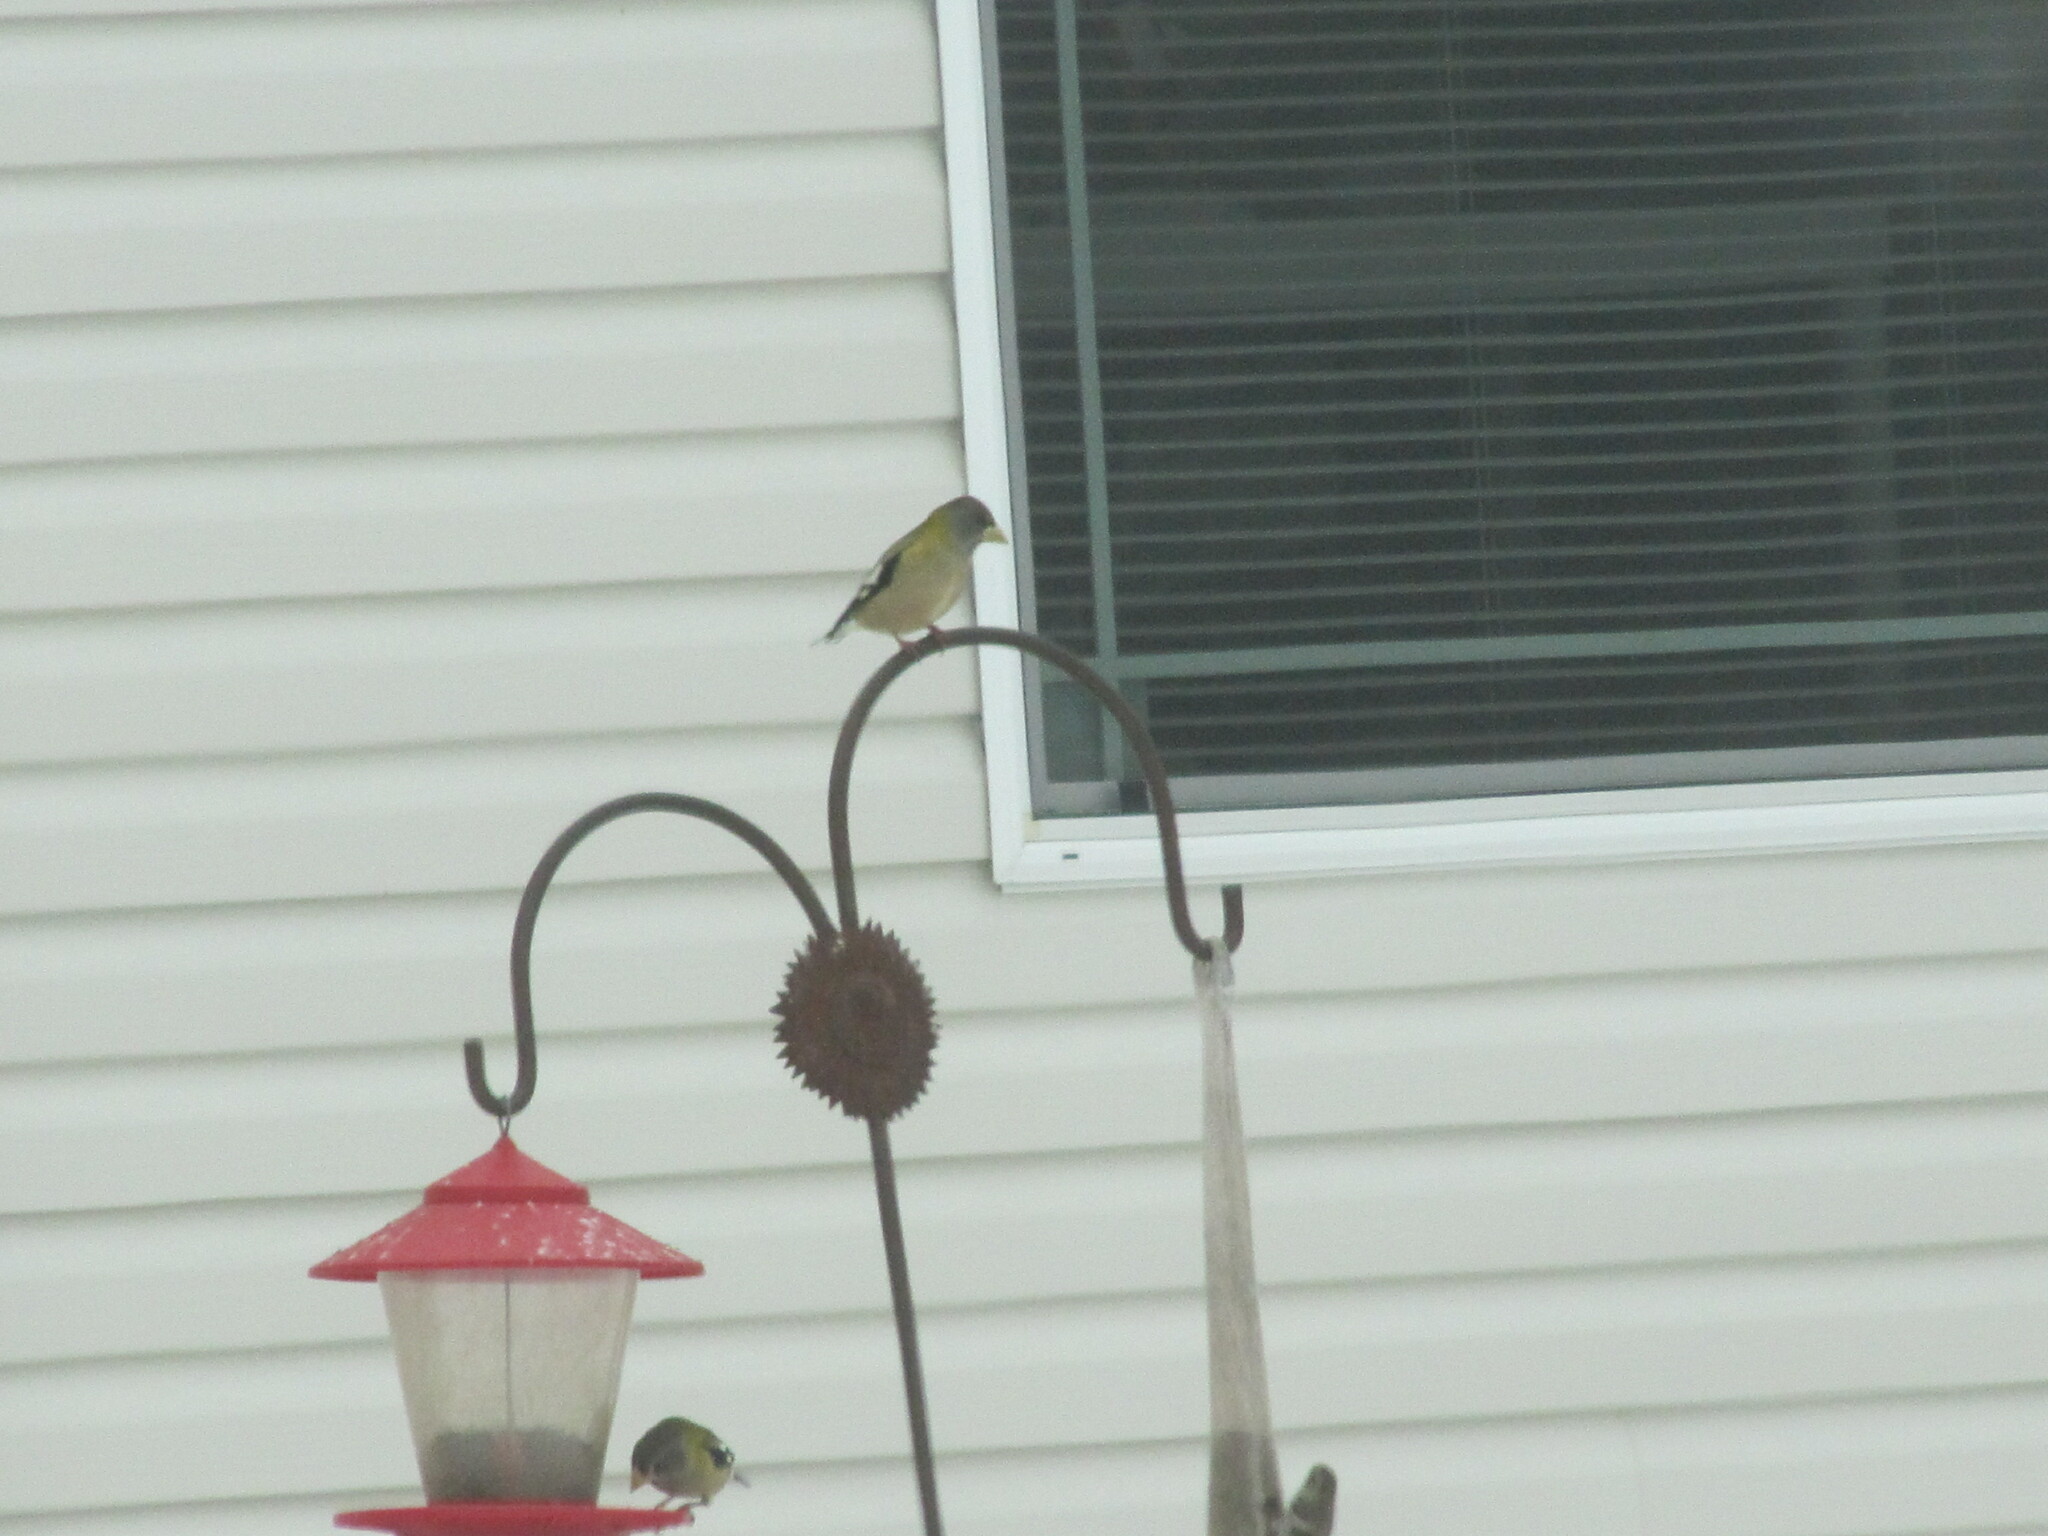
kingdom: Animalia
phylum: Chordata
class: Aves
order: Passeriformes
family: Fringillidae
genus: Hesperiphona
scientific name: Hesperiphona vespertina
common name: Evening grosbeak
